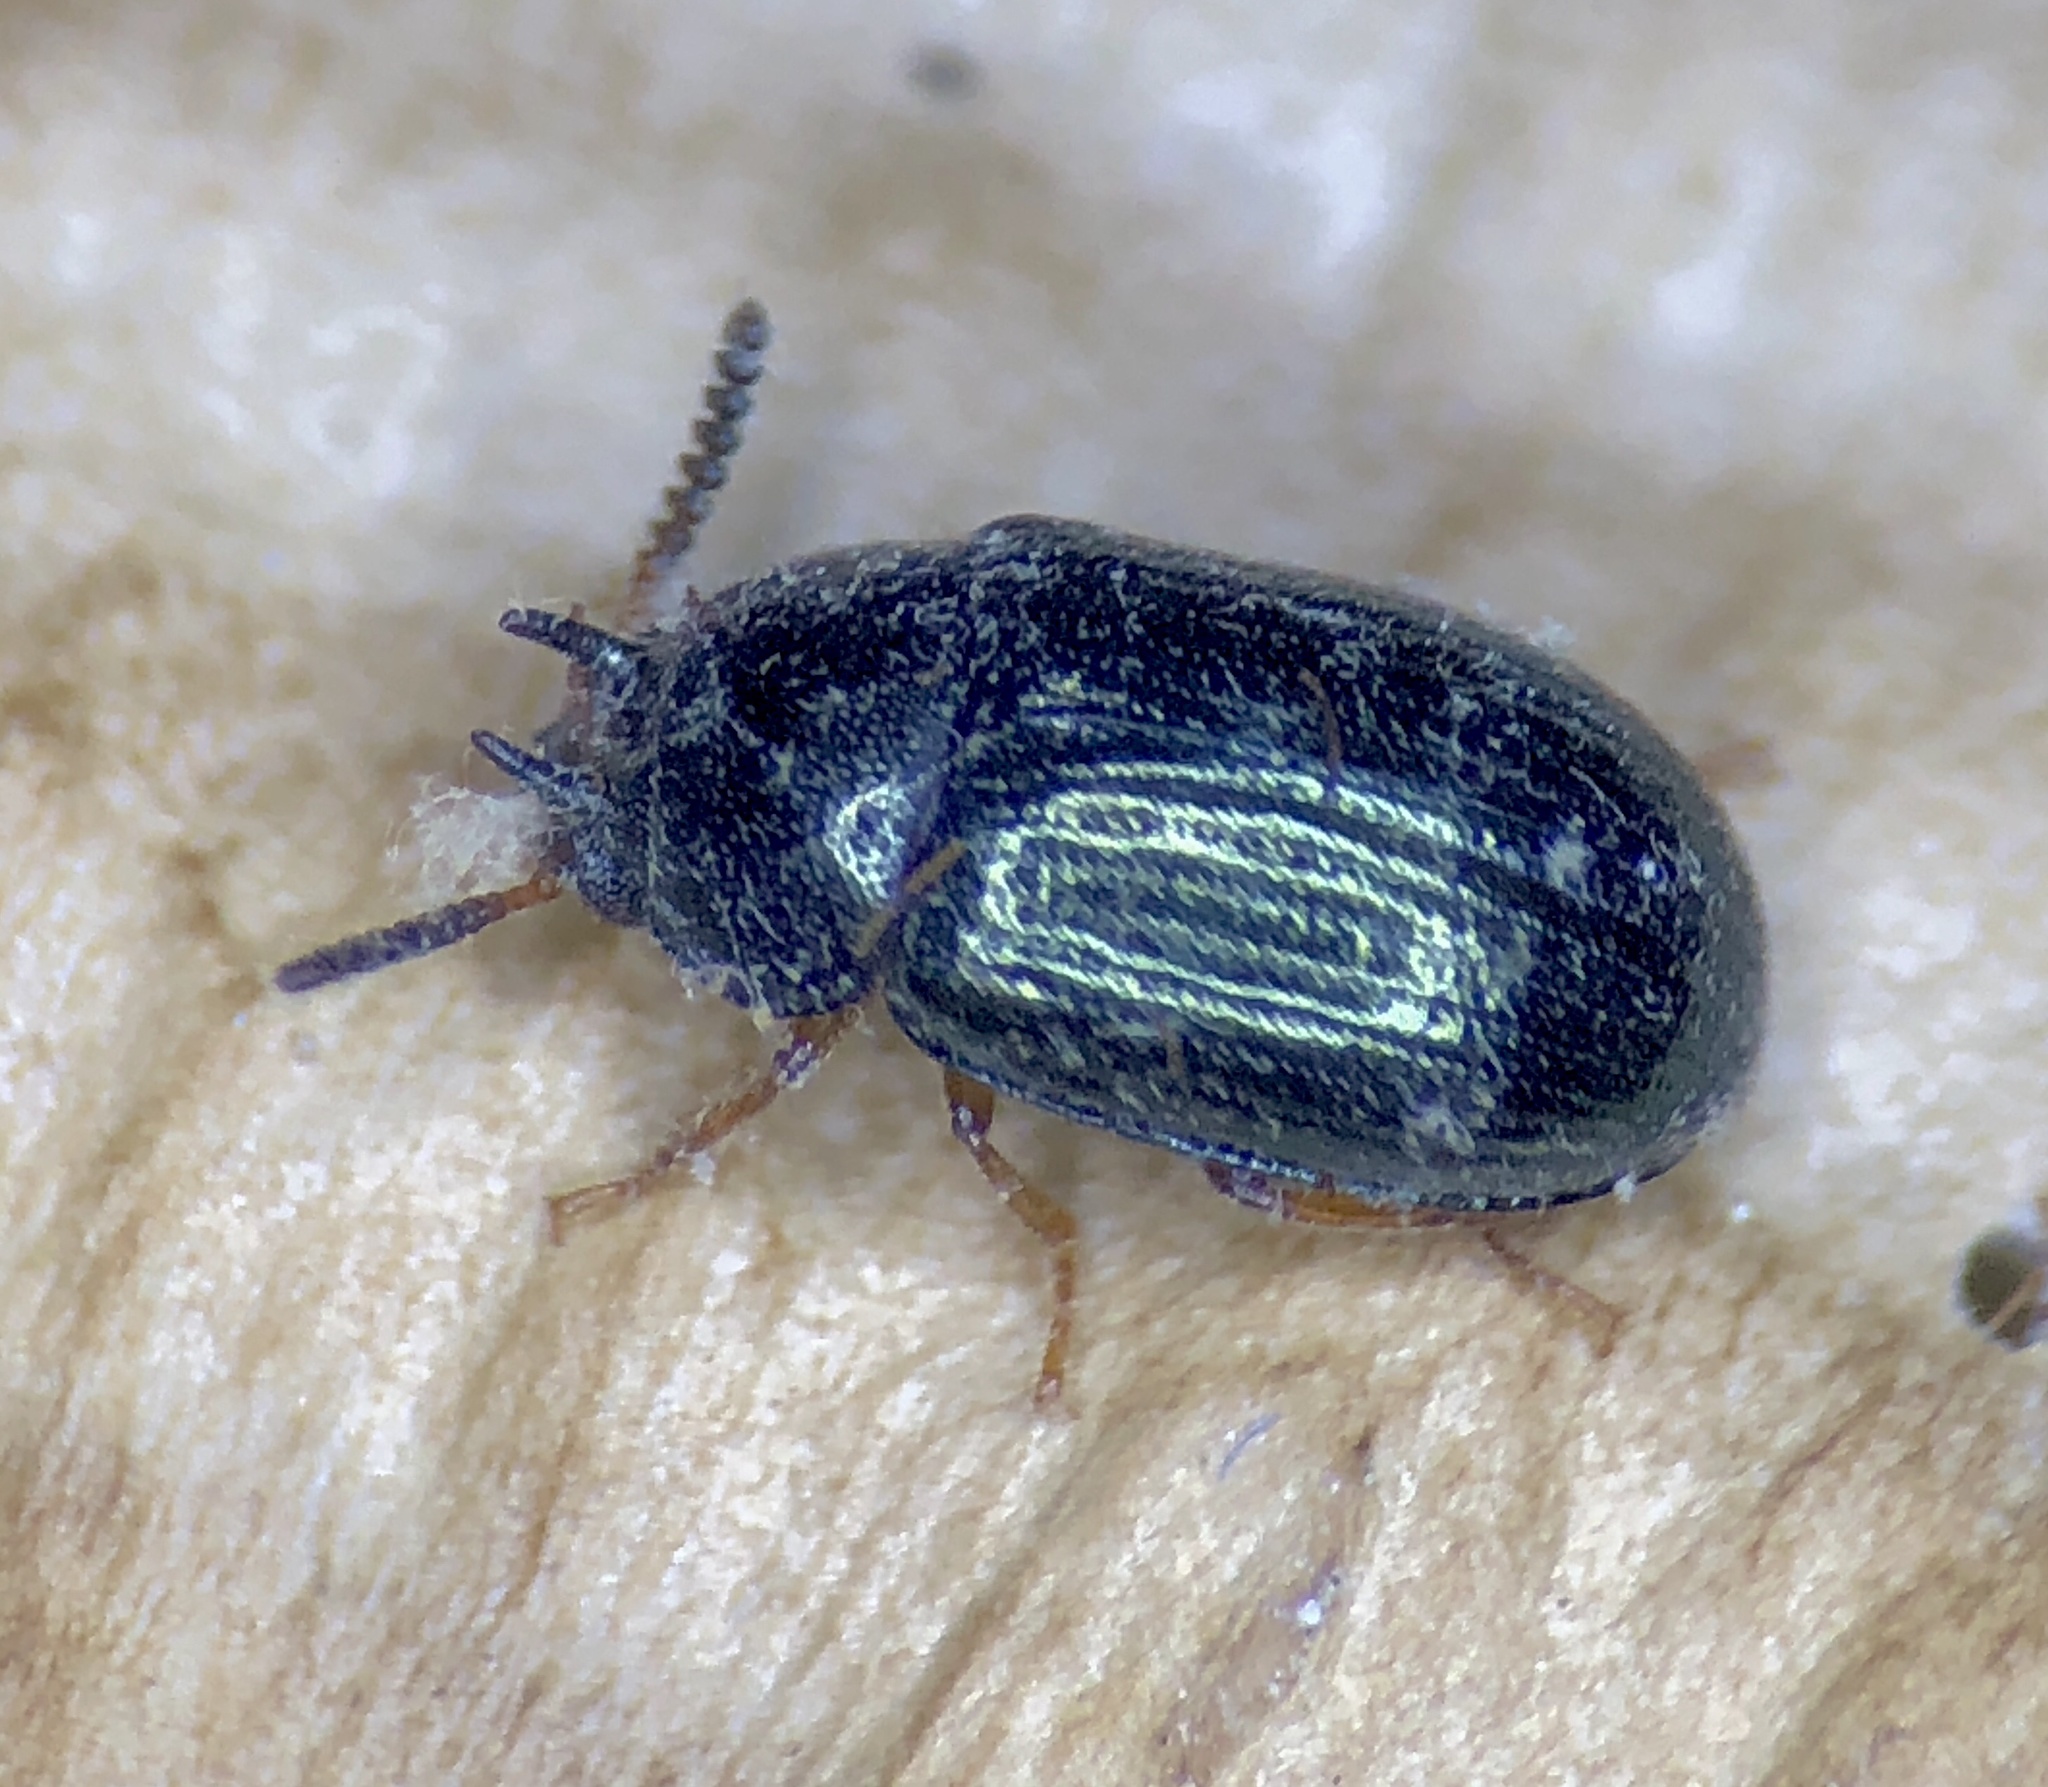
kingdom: Animalia
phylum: Arthropoda
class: Insecta
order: Coleoptera
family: Tenebrionidae
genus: Neomida
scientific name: Neomida bicornis
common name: Two-horned darkling beetle
